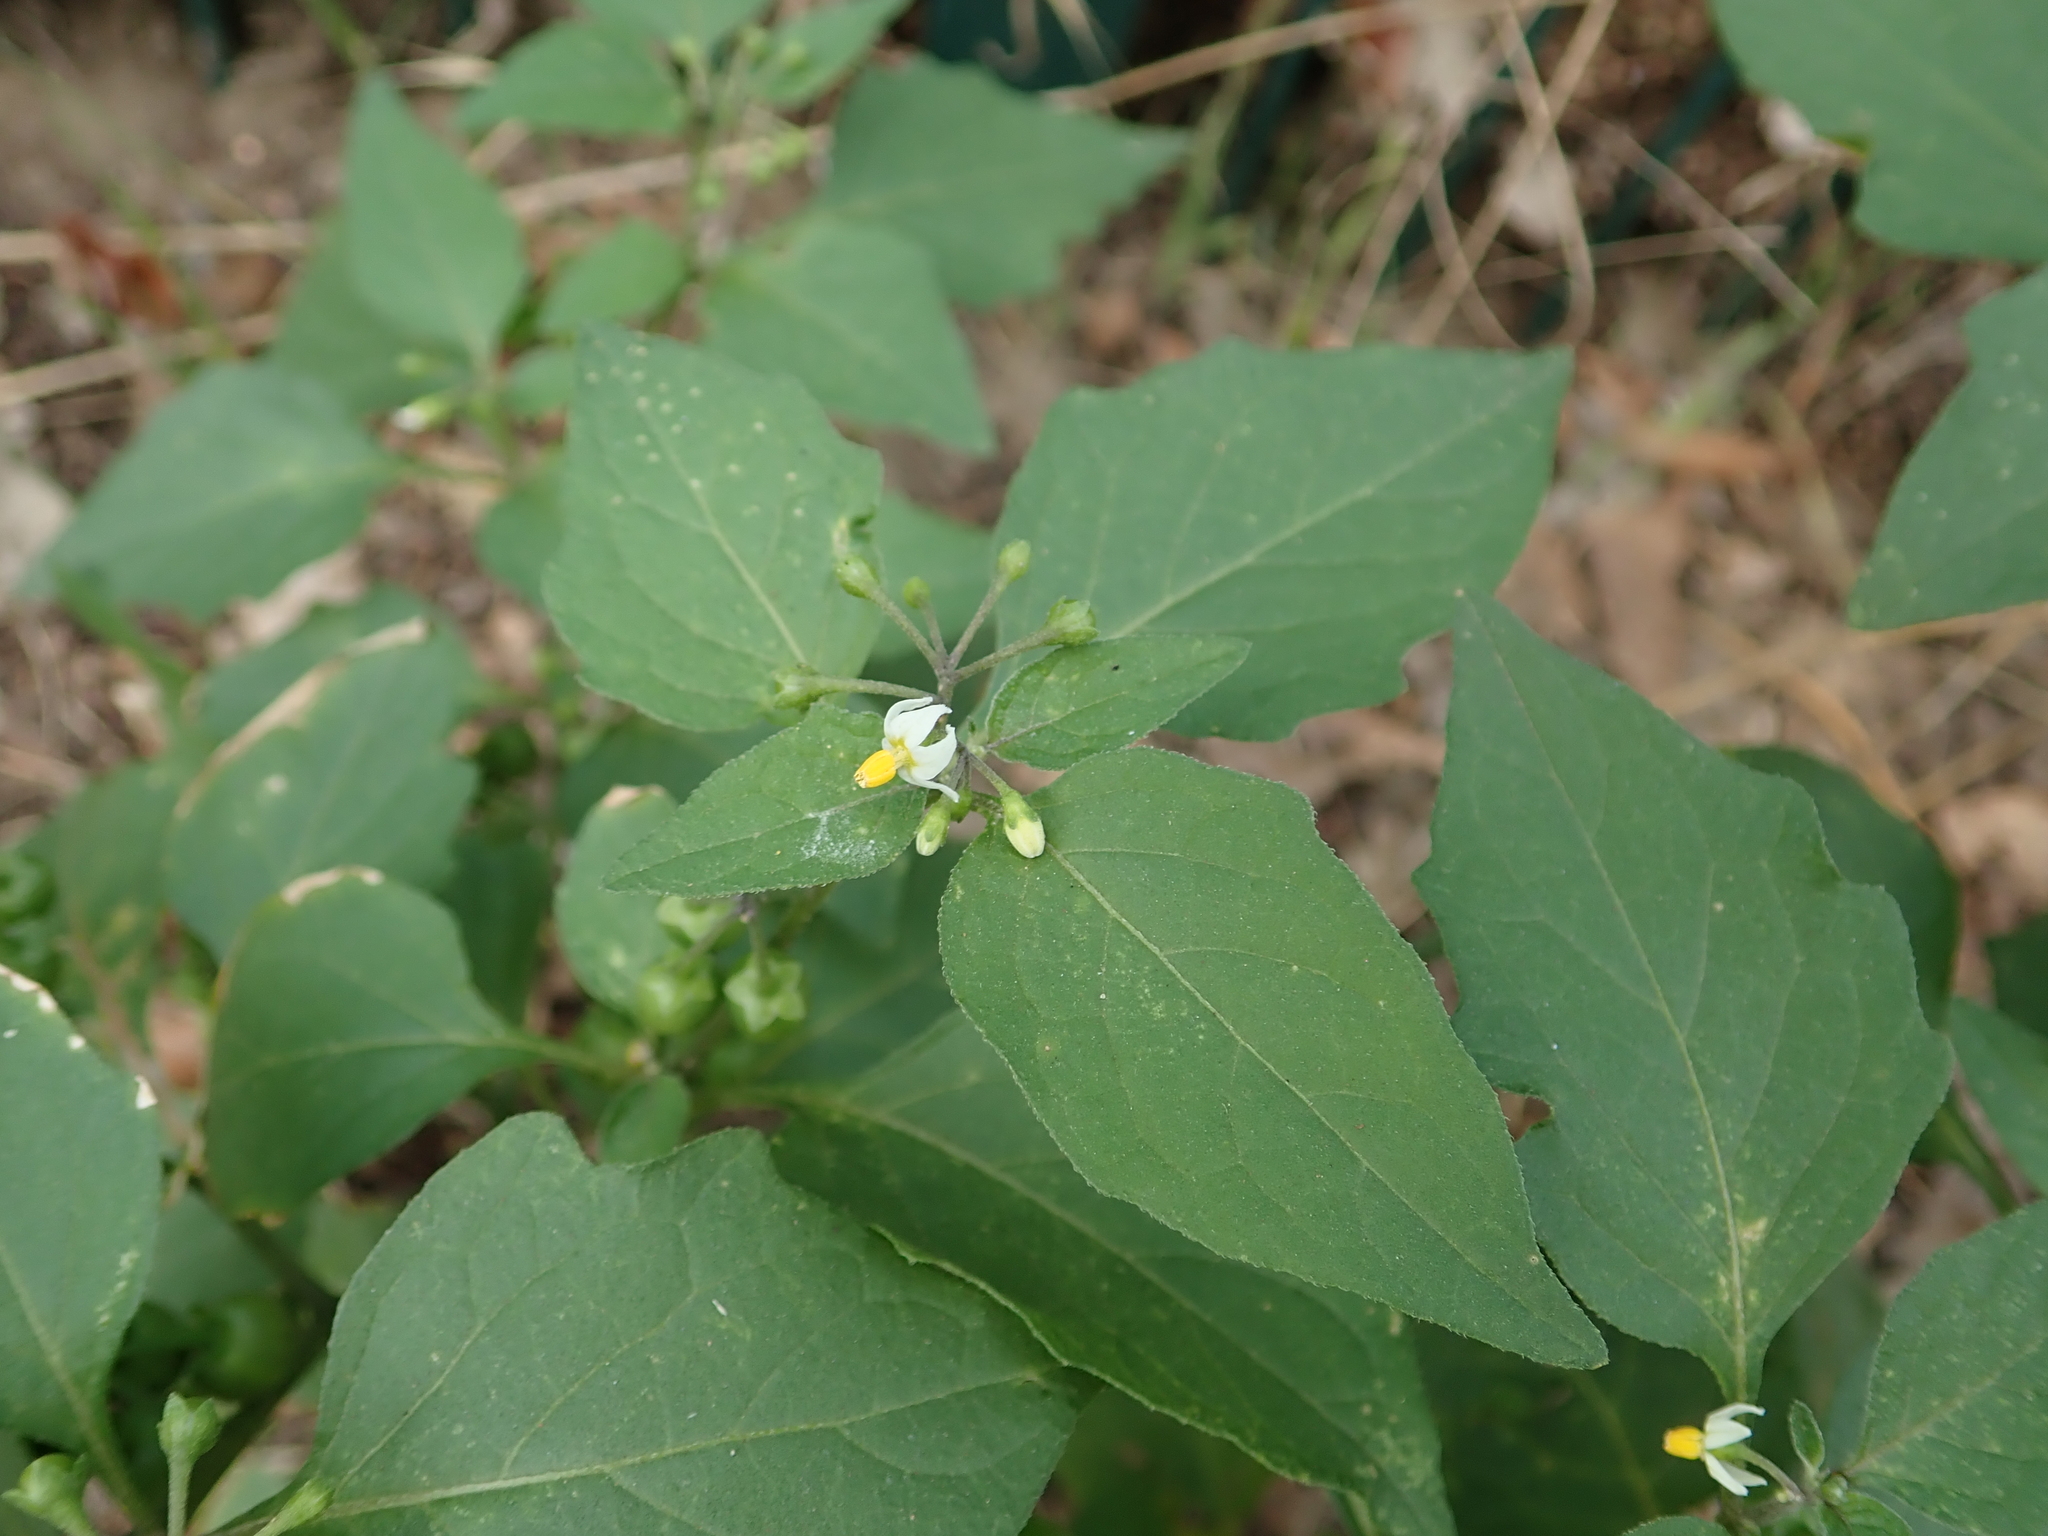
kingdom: Plantae
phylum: Tracheophyta
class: Magnoliopsida
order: Solanales
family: Solanaceae
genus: Solanum
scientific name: Solanum nigrum
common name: Black nightshade
